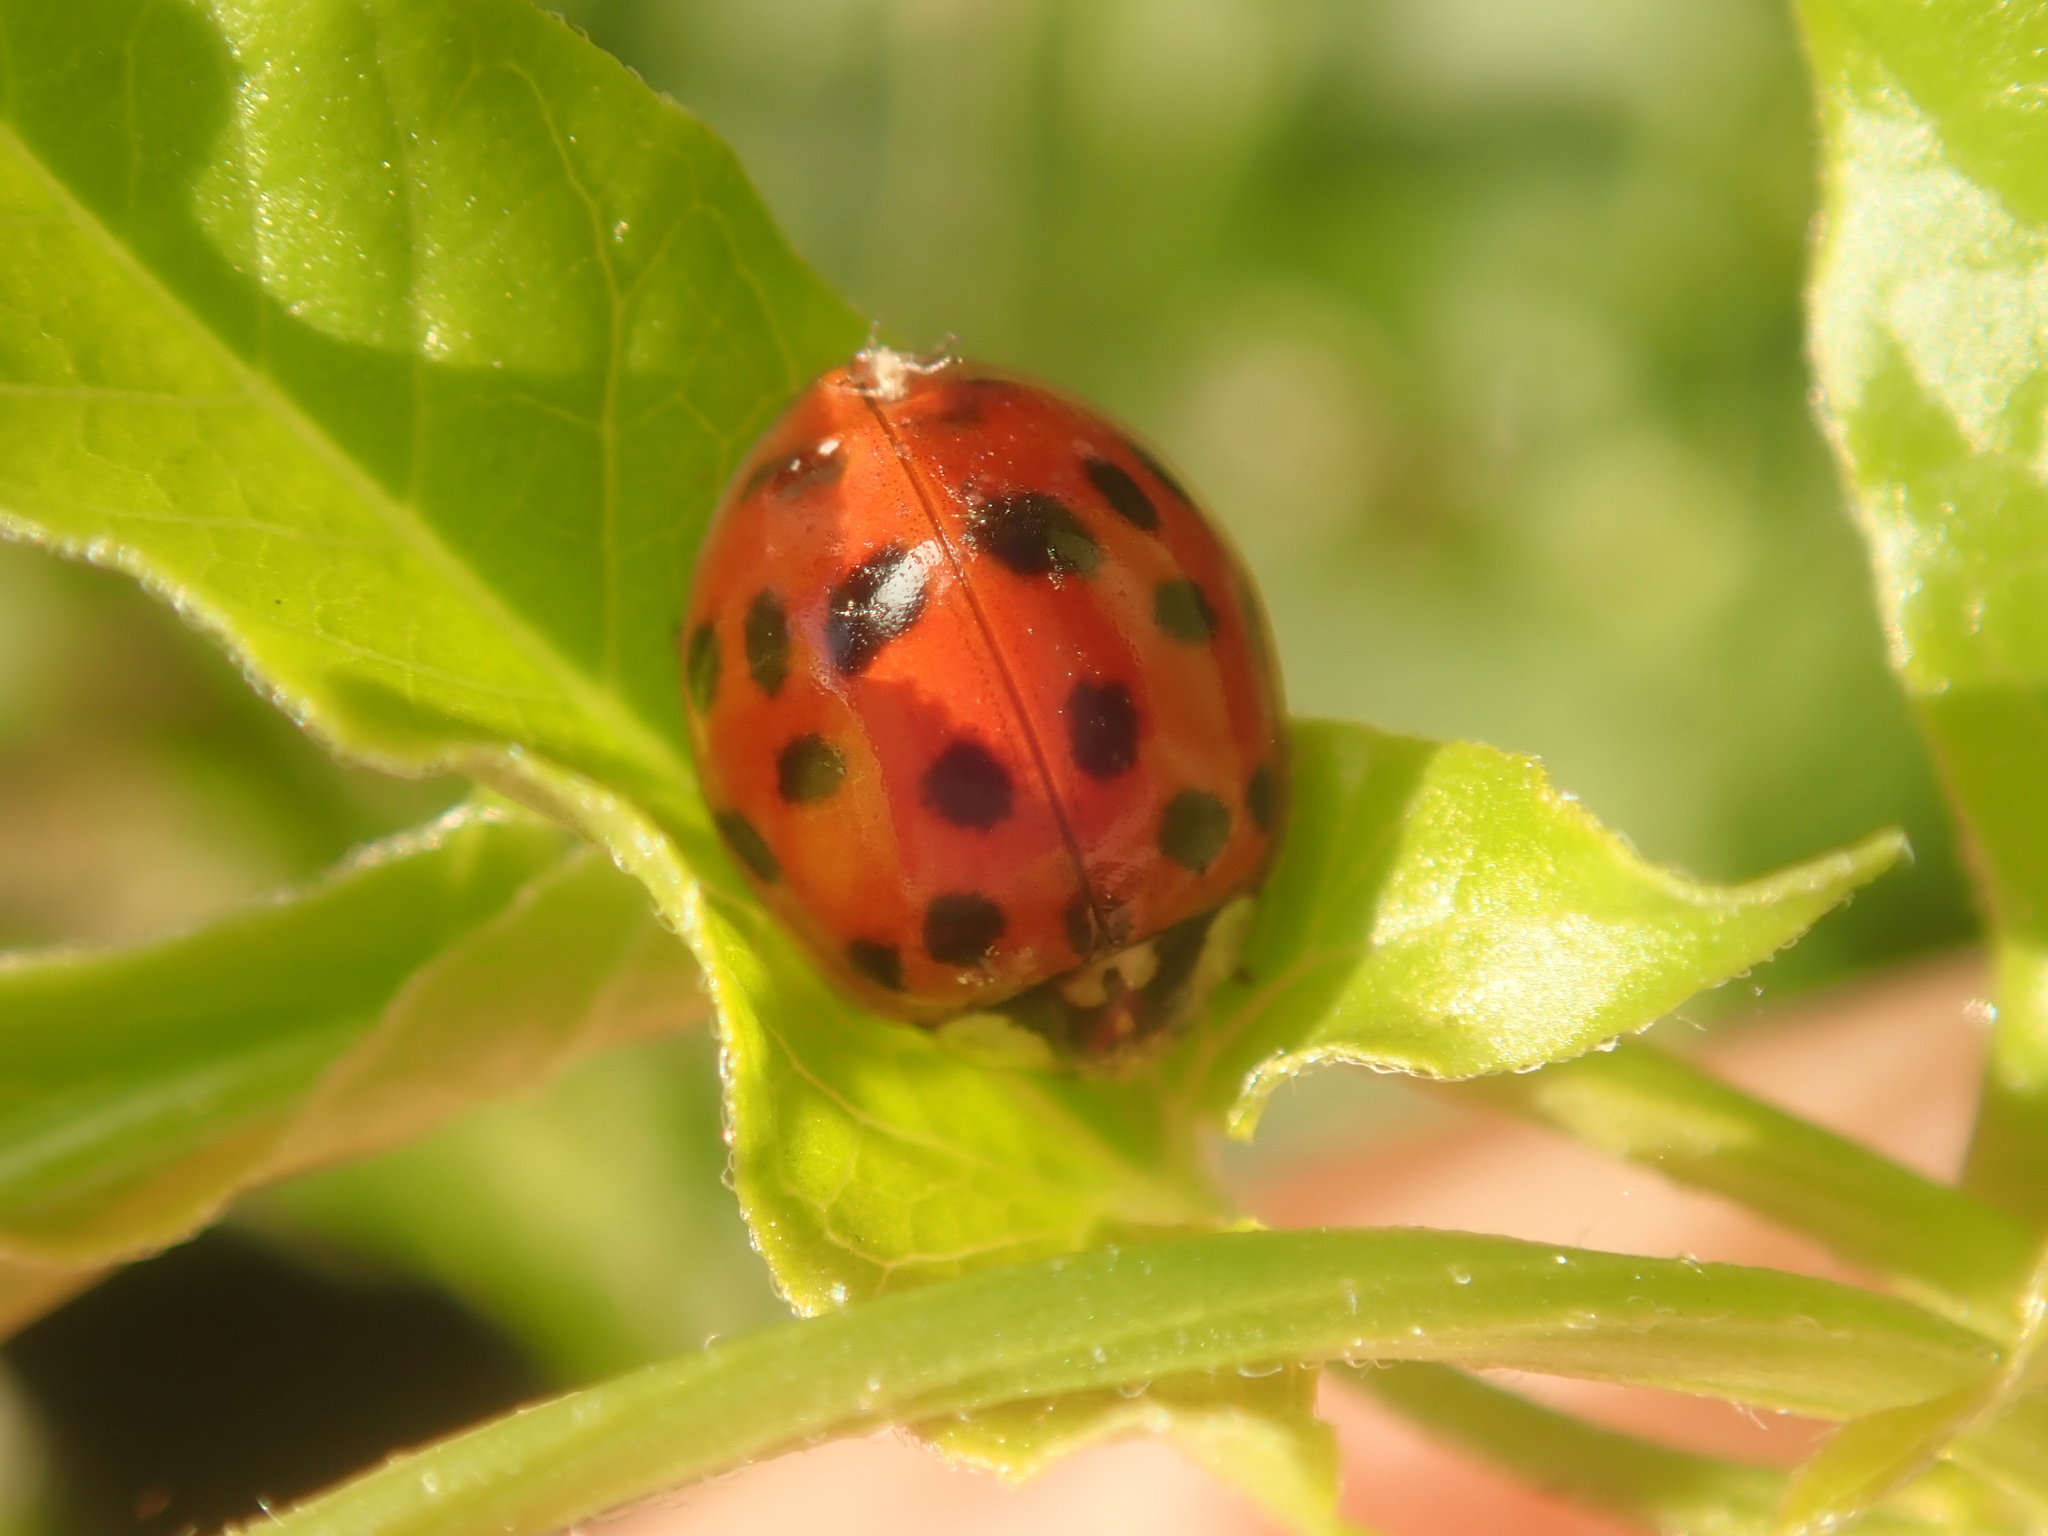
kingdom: Animalia
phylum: Arthropoda
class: Insecta
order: Coleoptera
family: Coccinellidae
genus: Harmonia
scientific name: Harmonia axyridis
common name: Harlequin ladybird
